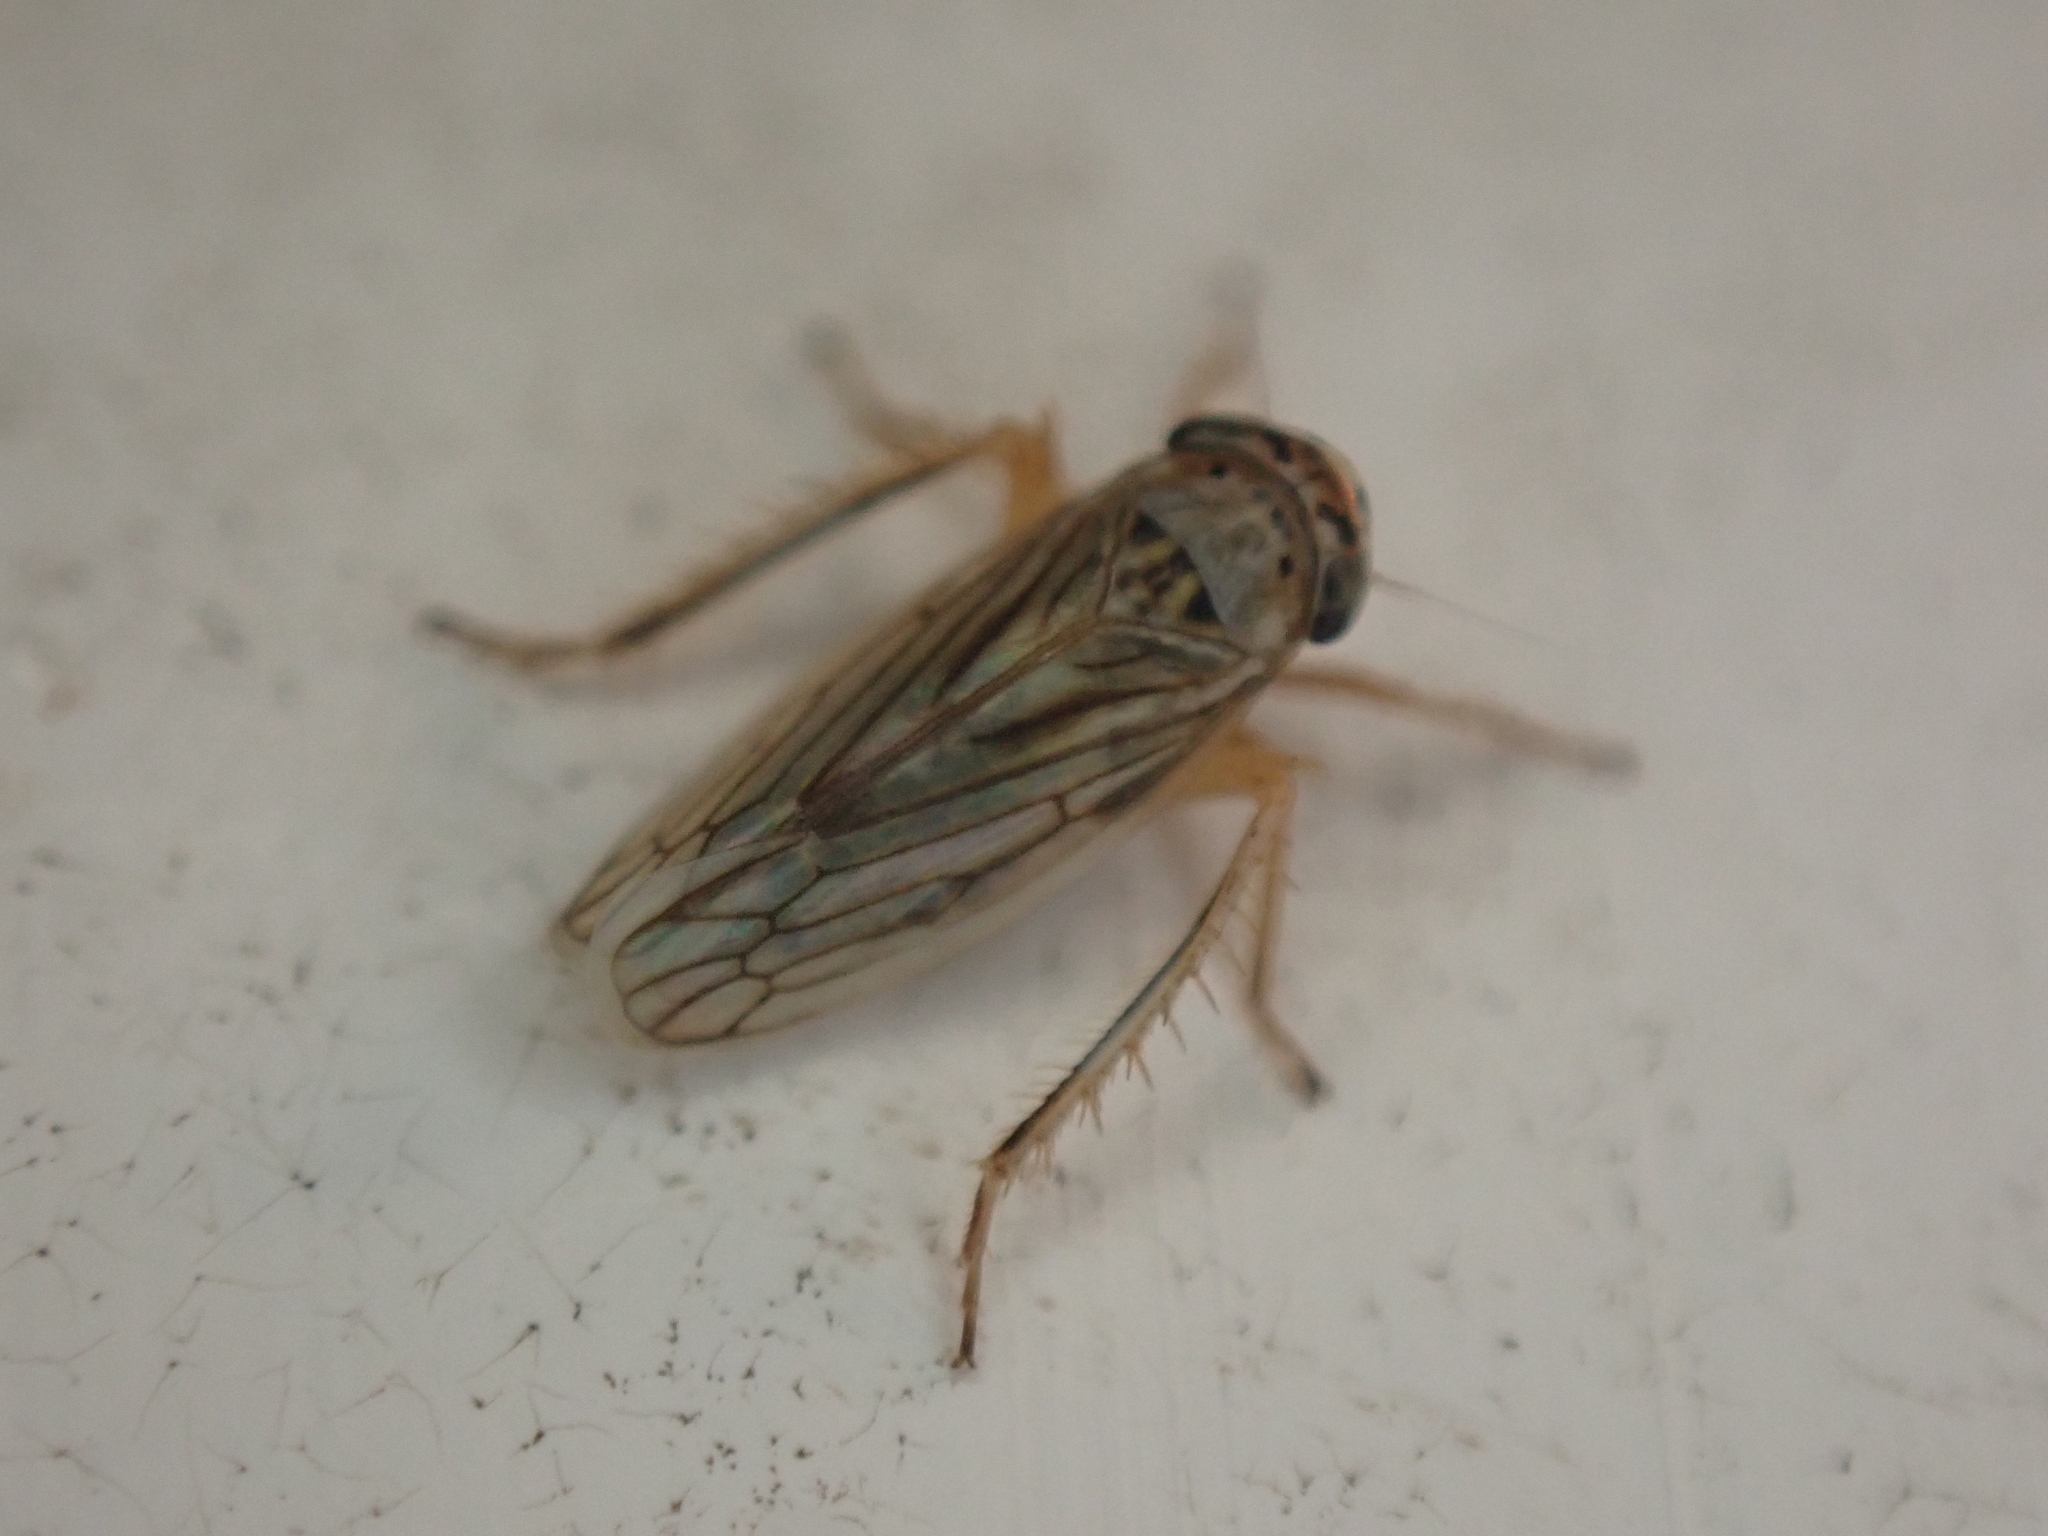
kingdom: Animalia
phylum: Arthropoda
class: Insecta
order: Hemiptera
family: Cicadellidae
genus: Exitianus
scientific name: Exitianus exitiosus
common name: Gray lawn leafhopper
